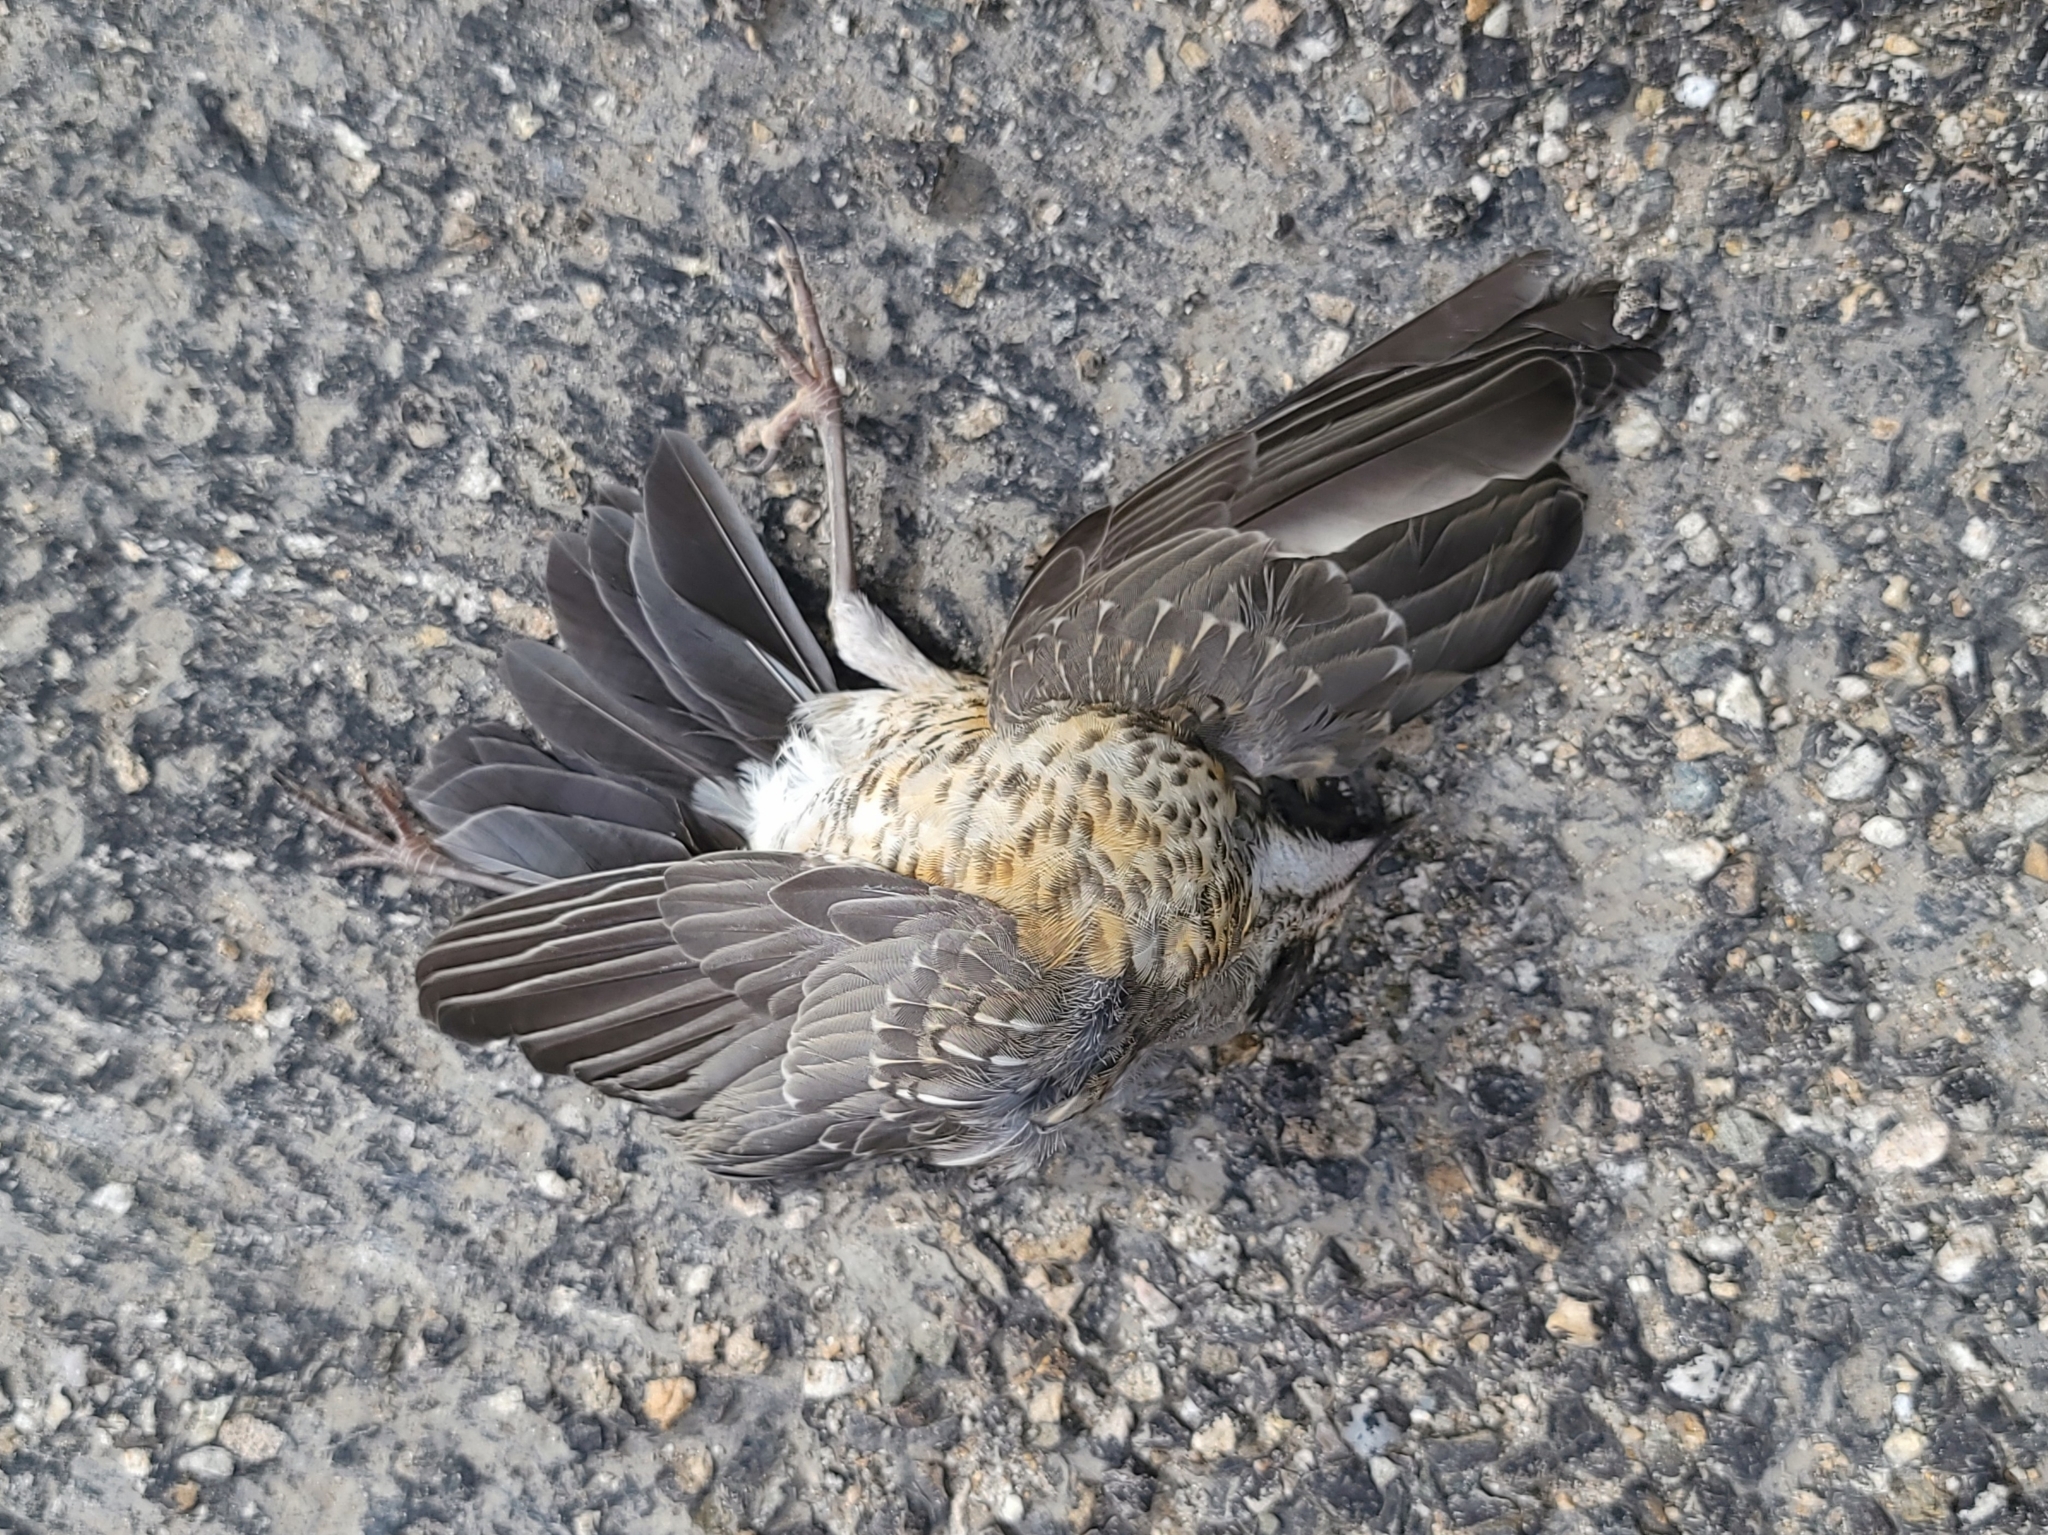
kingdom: Animalia
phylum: Chordata
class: Aves
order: Passeriformes
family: Turdidae
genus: Turdus
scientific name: Turdus migratorius
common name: American robin
